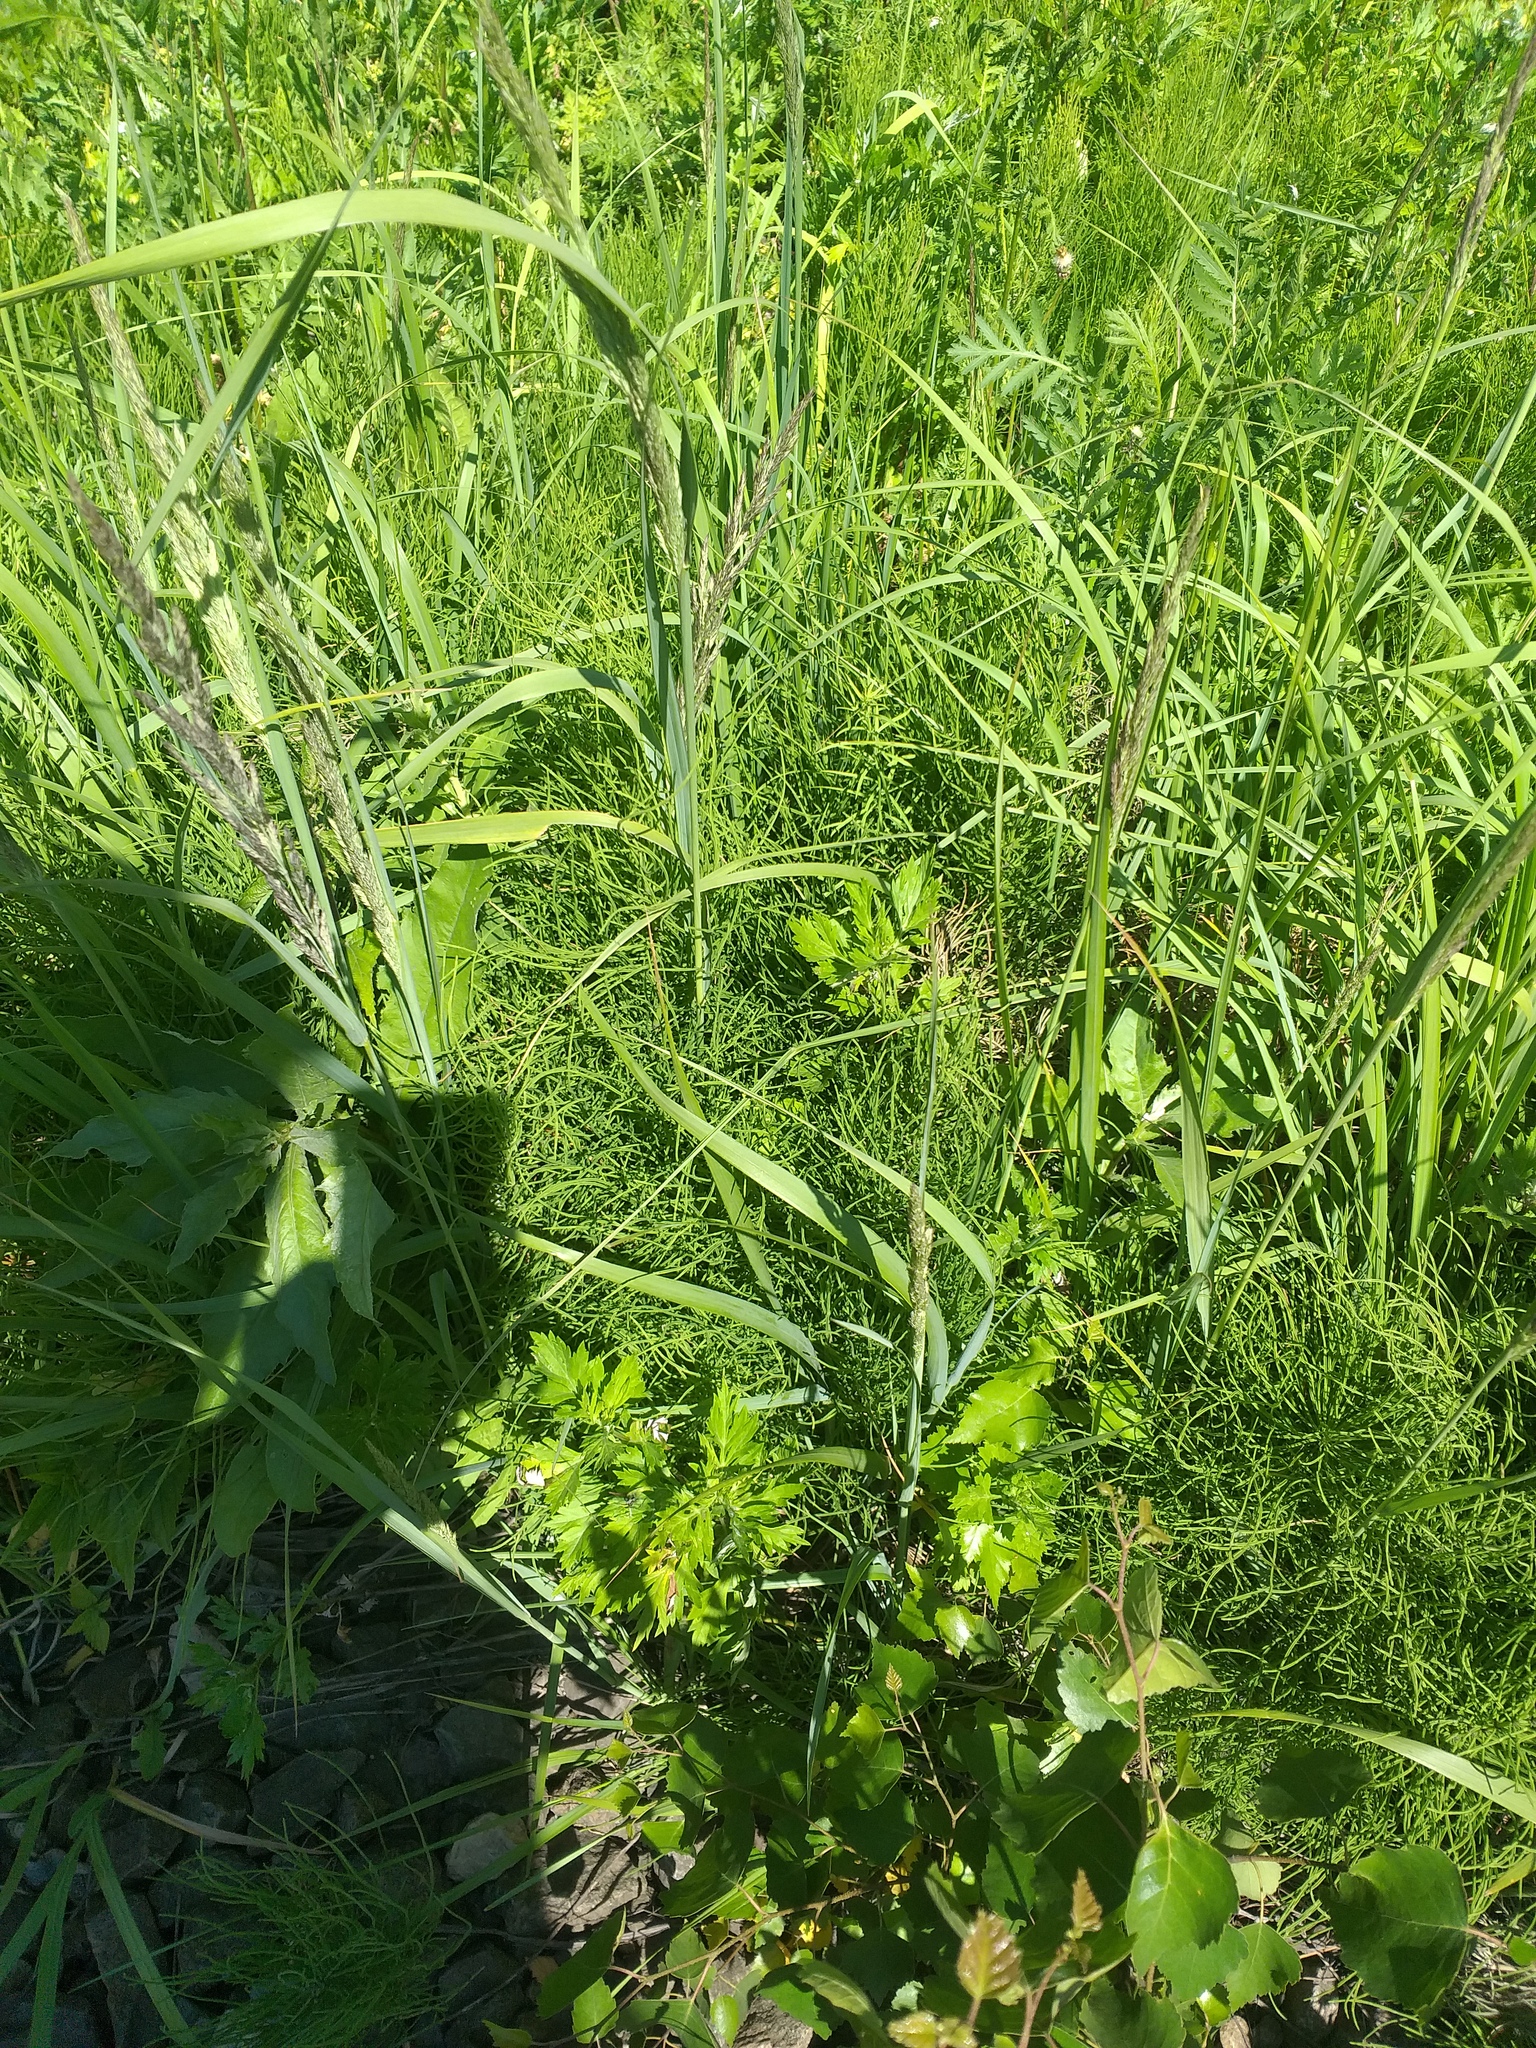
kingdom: Plantae
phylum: Tracheophyta
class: Liliopsida
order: Poales
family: Poaceae
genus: Calamagrostis
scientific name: Calamagrostis epigejos
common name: Wood small-reed
